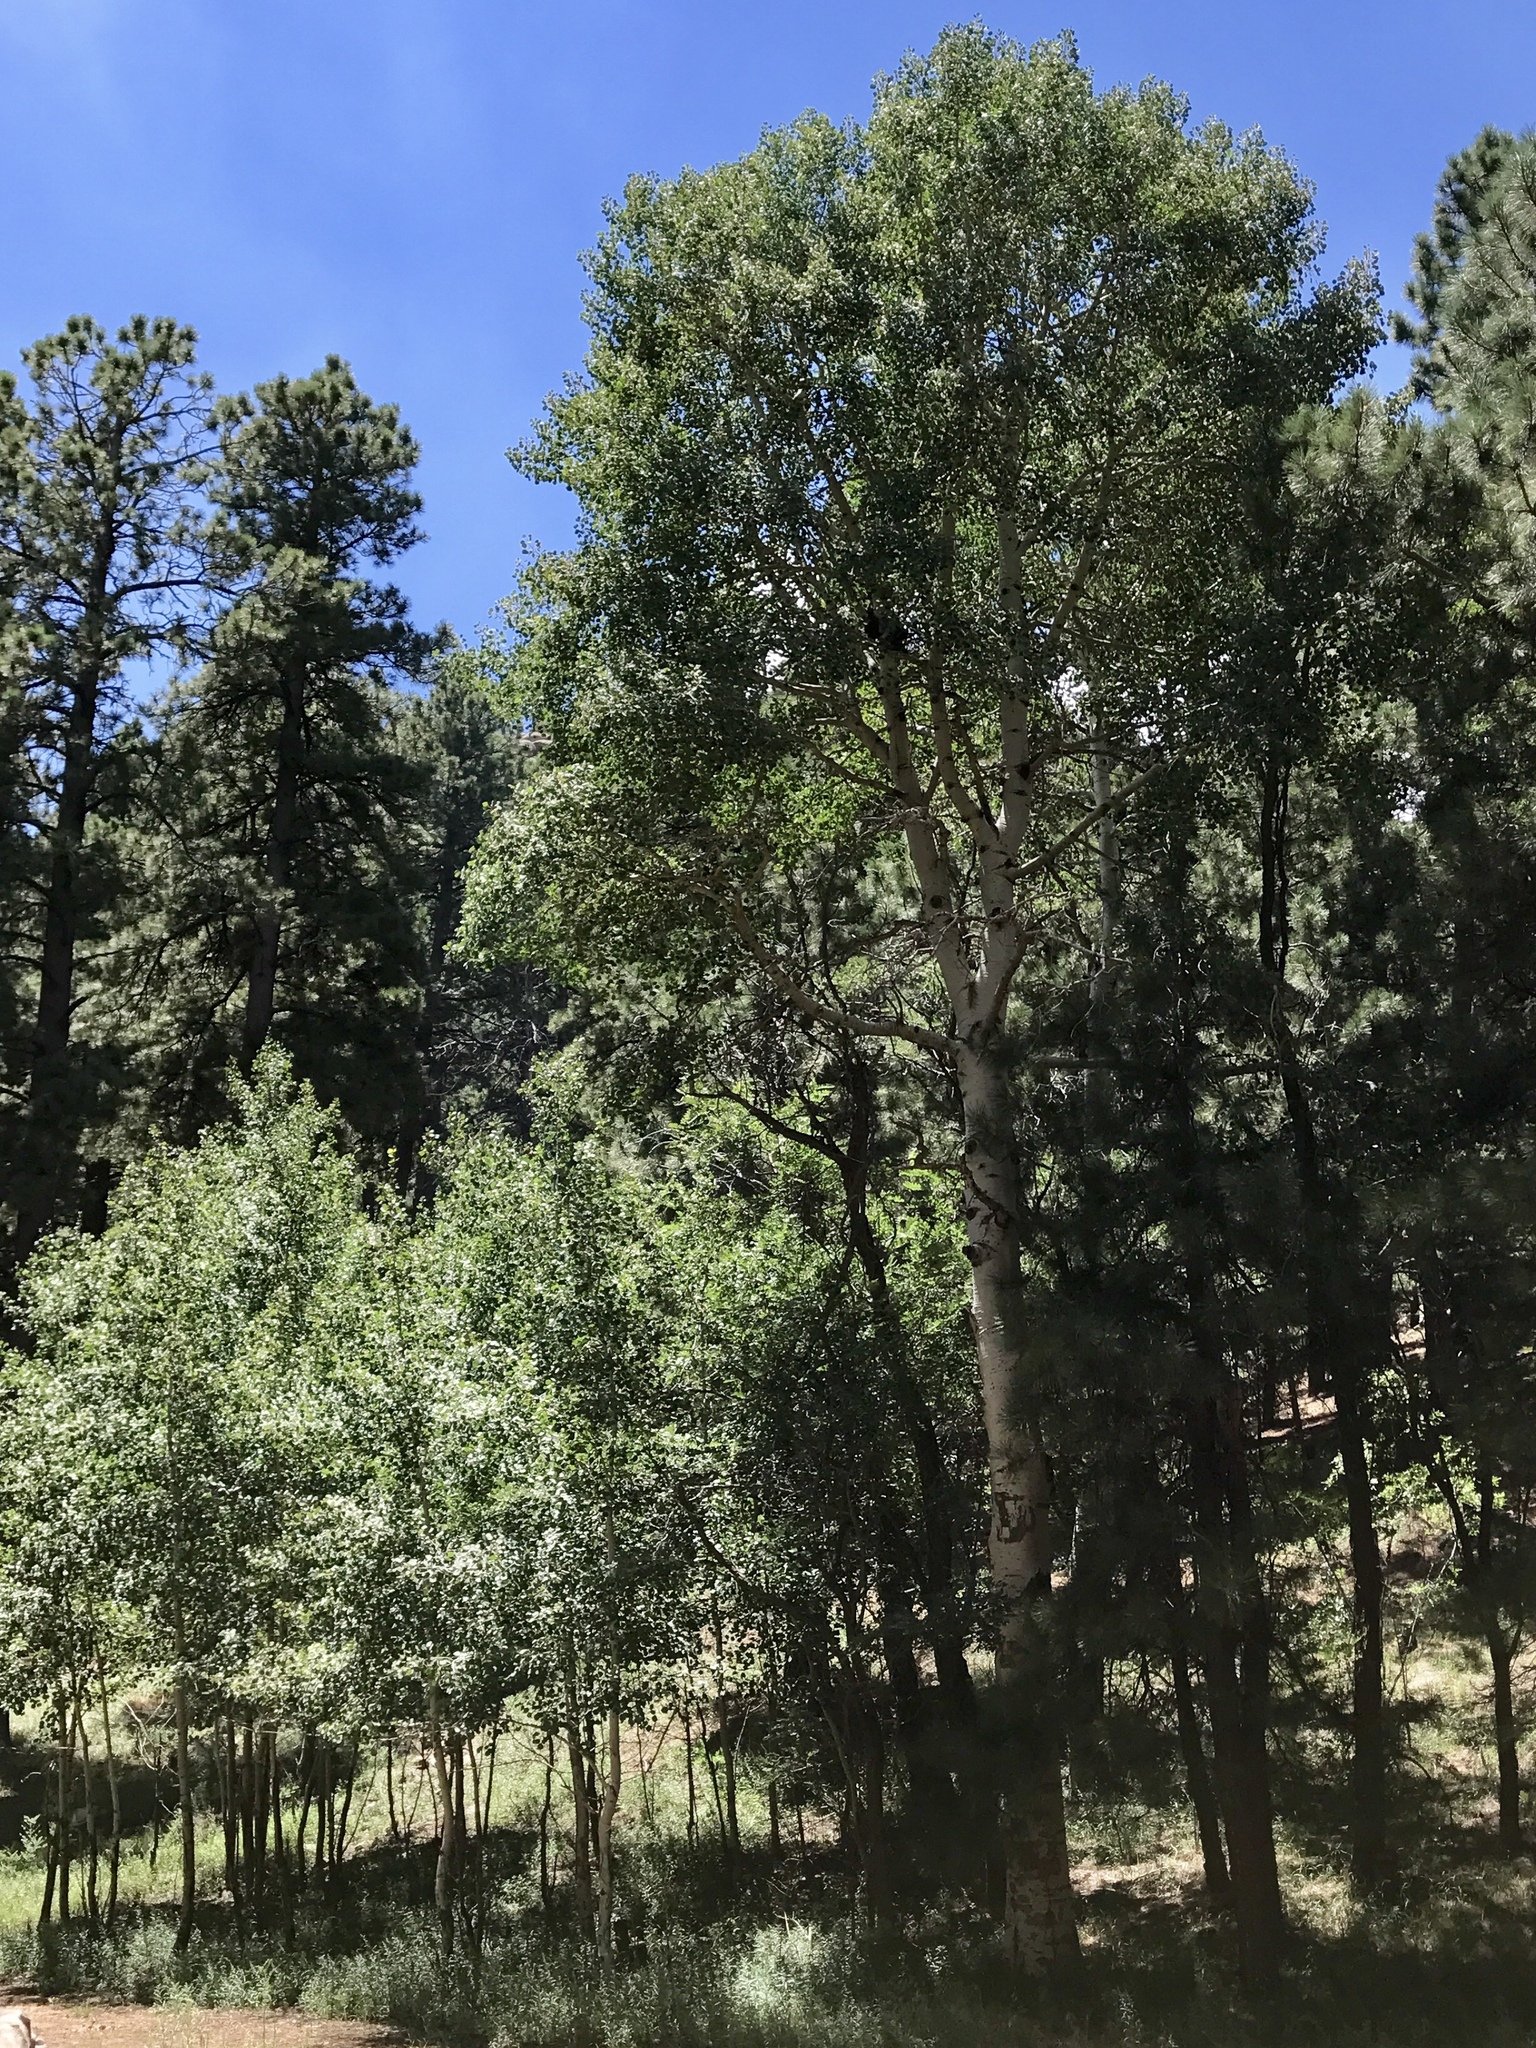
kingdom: Plantae
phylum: Tracheophyta
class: Magnoliopsida
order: Malpighiales
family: Salicaceae
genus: Populus
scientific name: Populus tremuloides
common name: Quaking aspen
